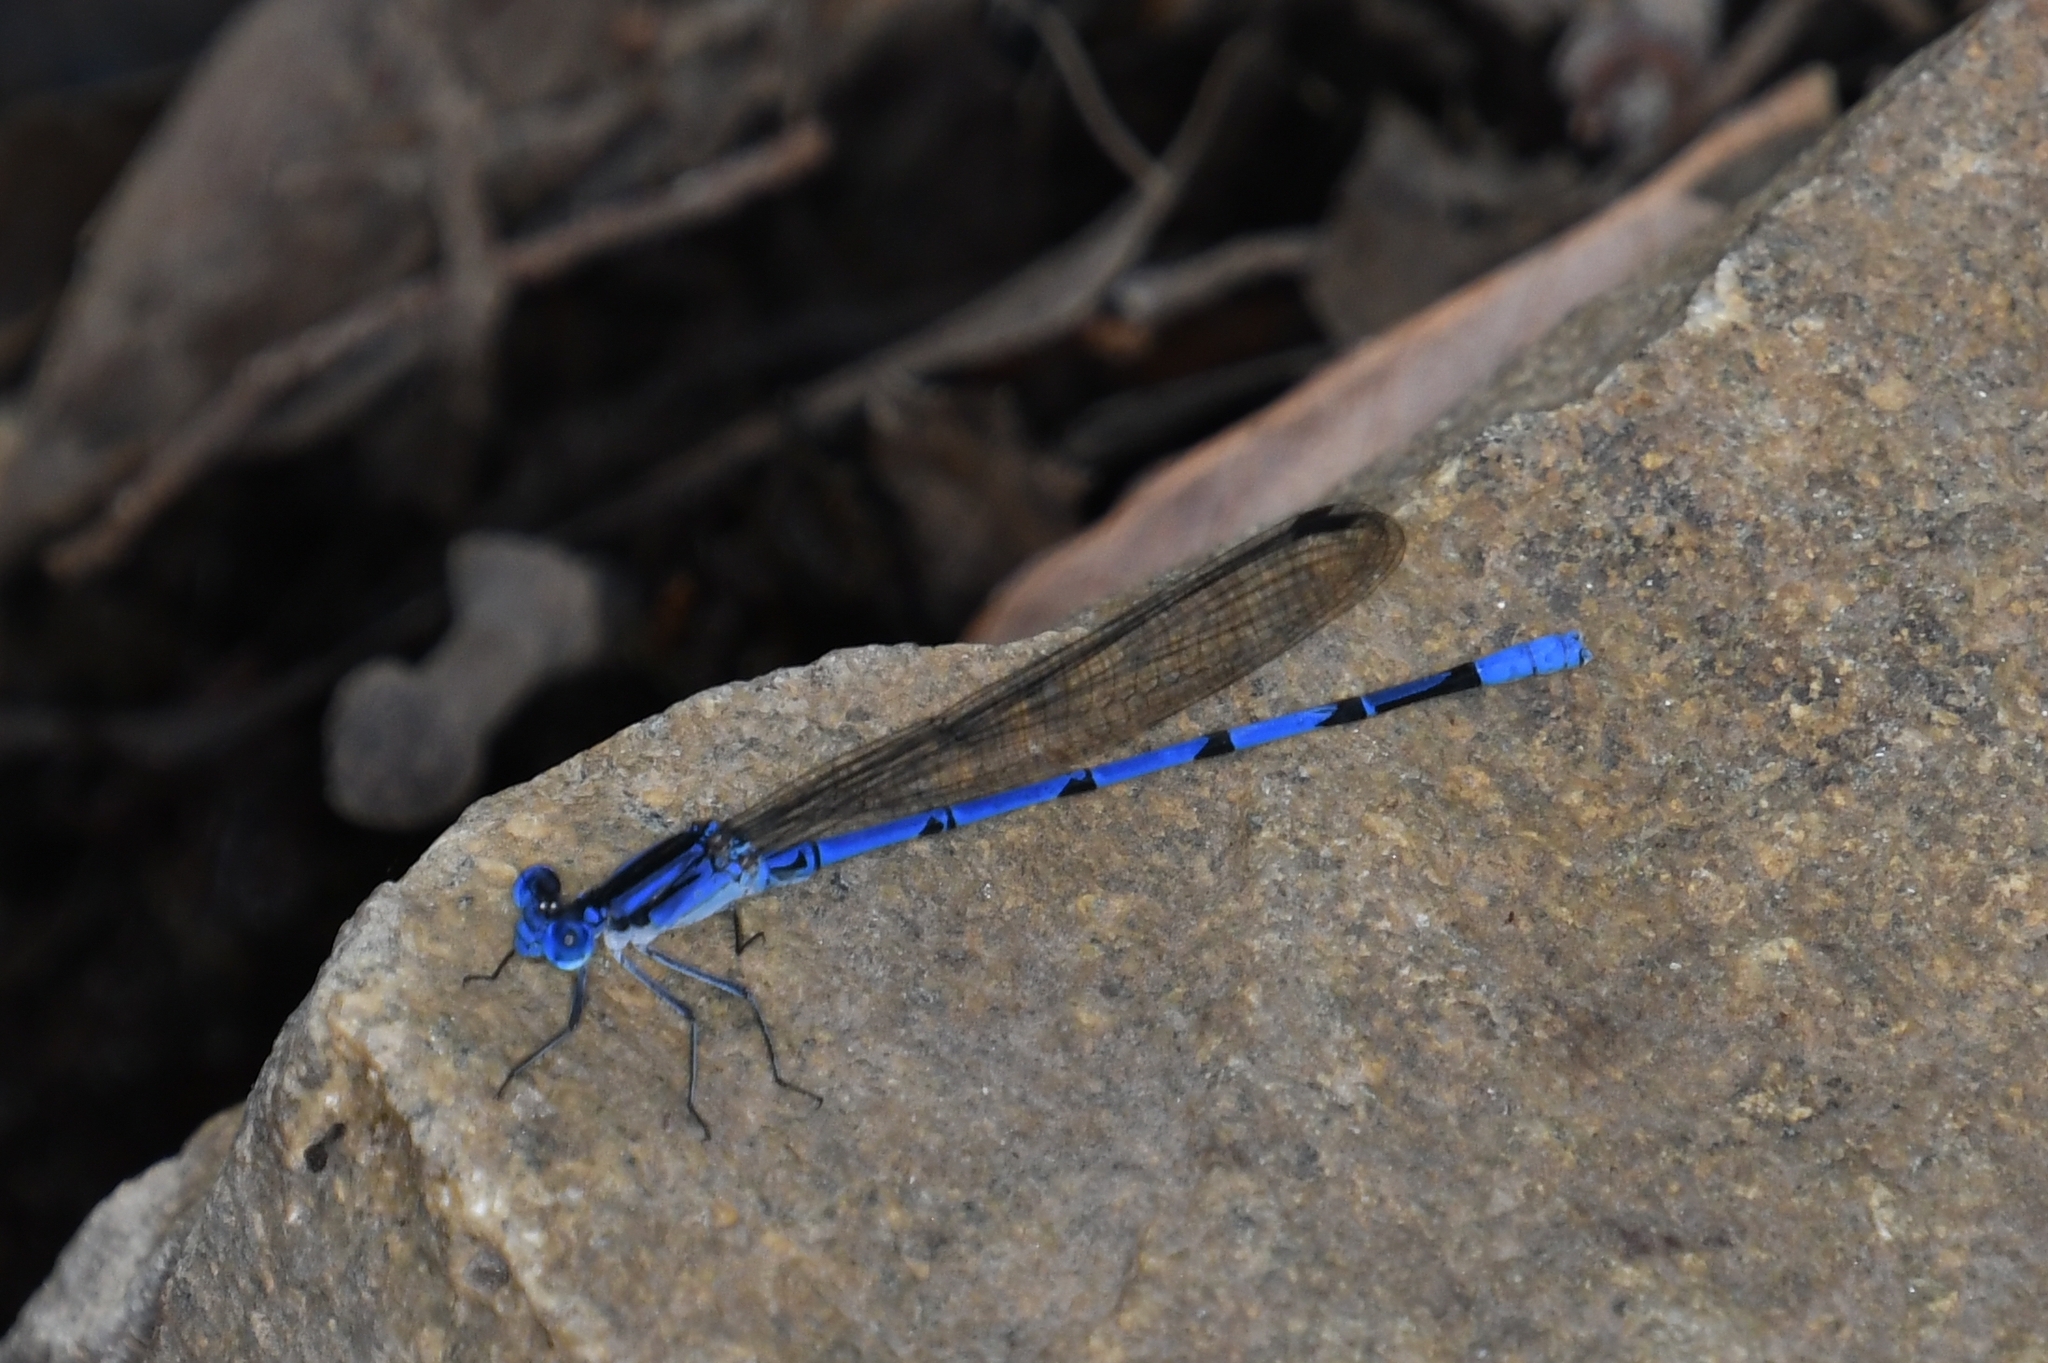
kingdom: Animalia
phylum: Arthropoda
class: Insecta
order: Odonata
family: Coenagrionidae
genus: Argia
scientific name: Argia lacrimans
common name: Sierra madre dancer
